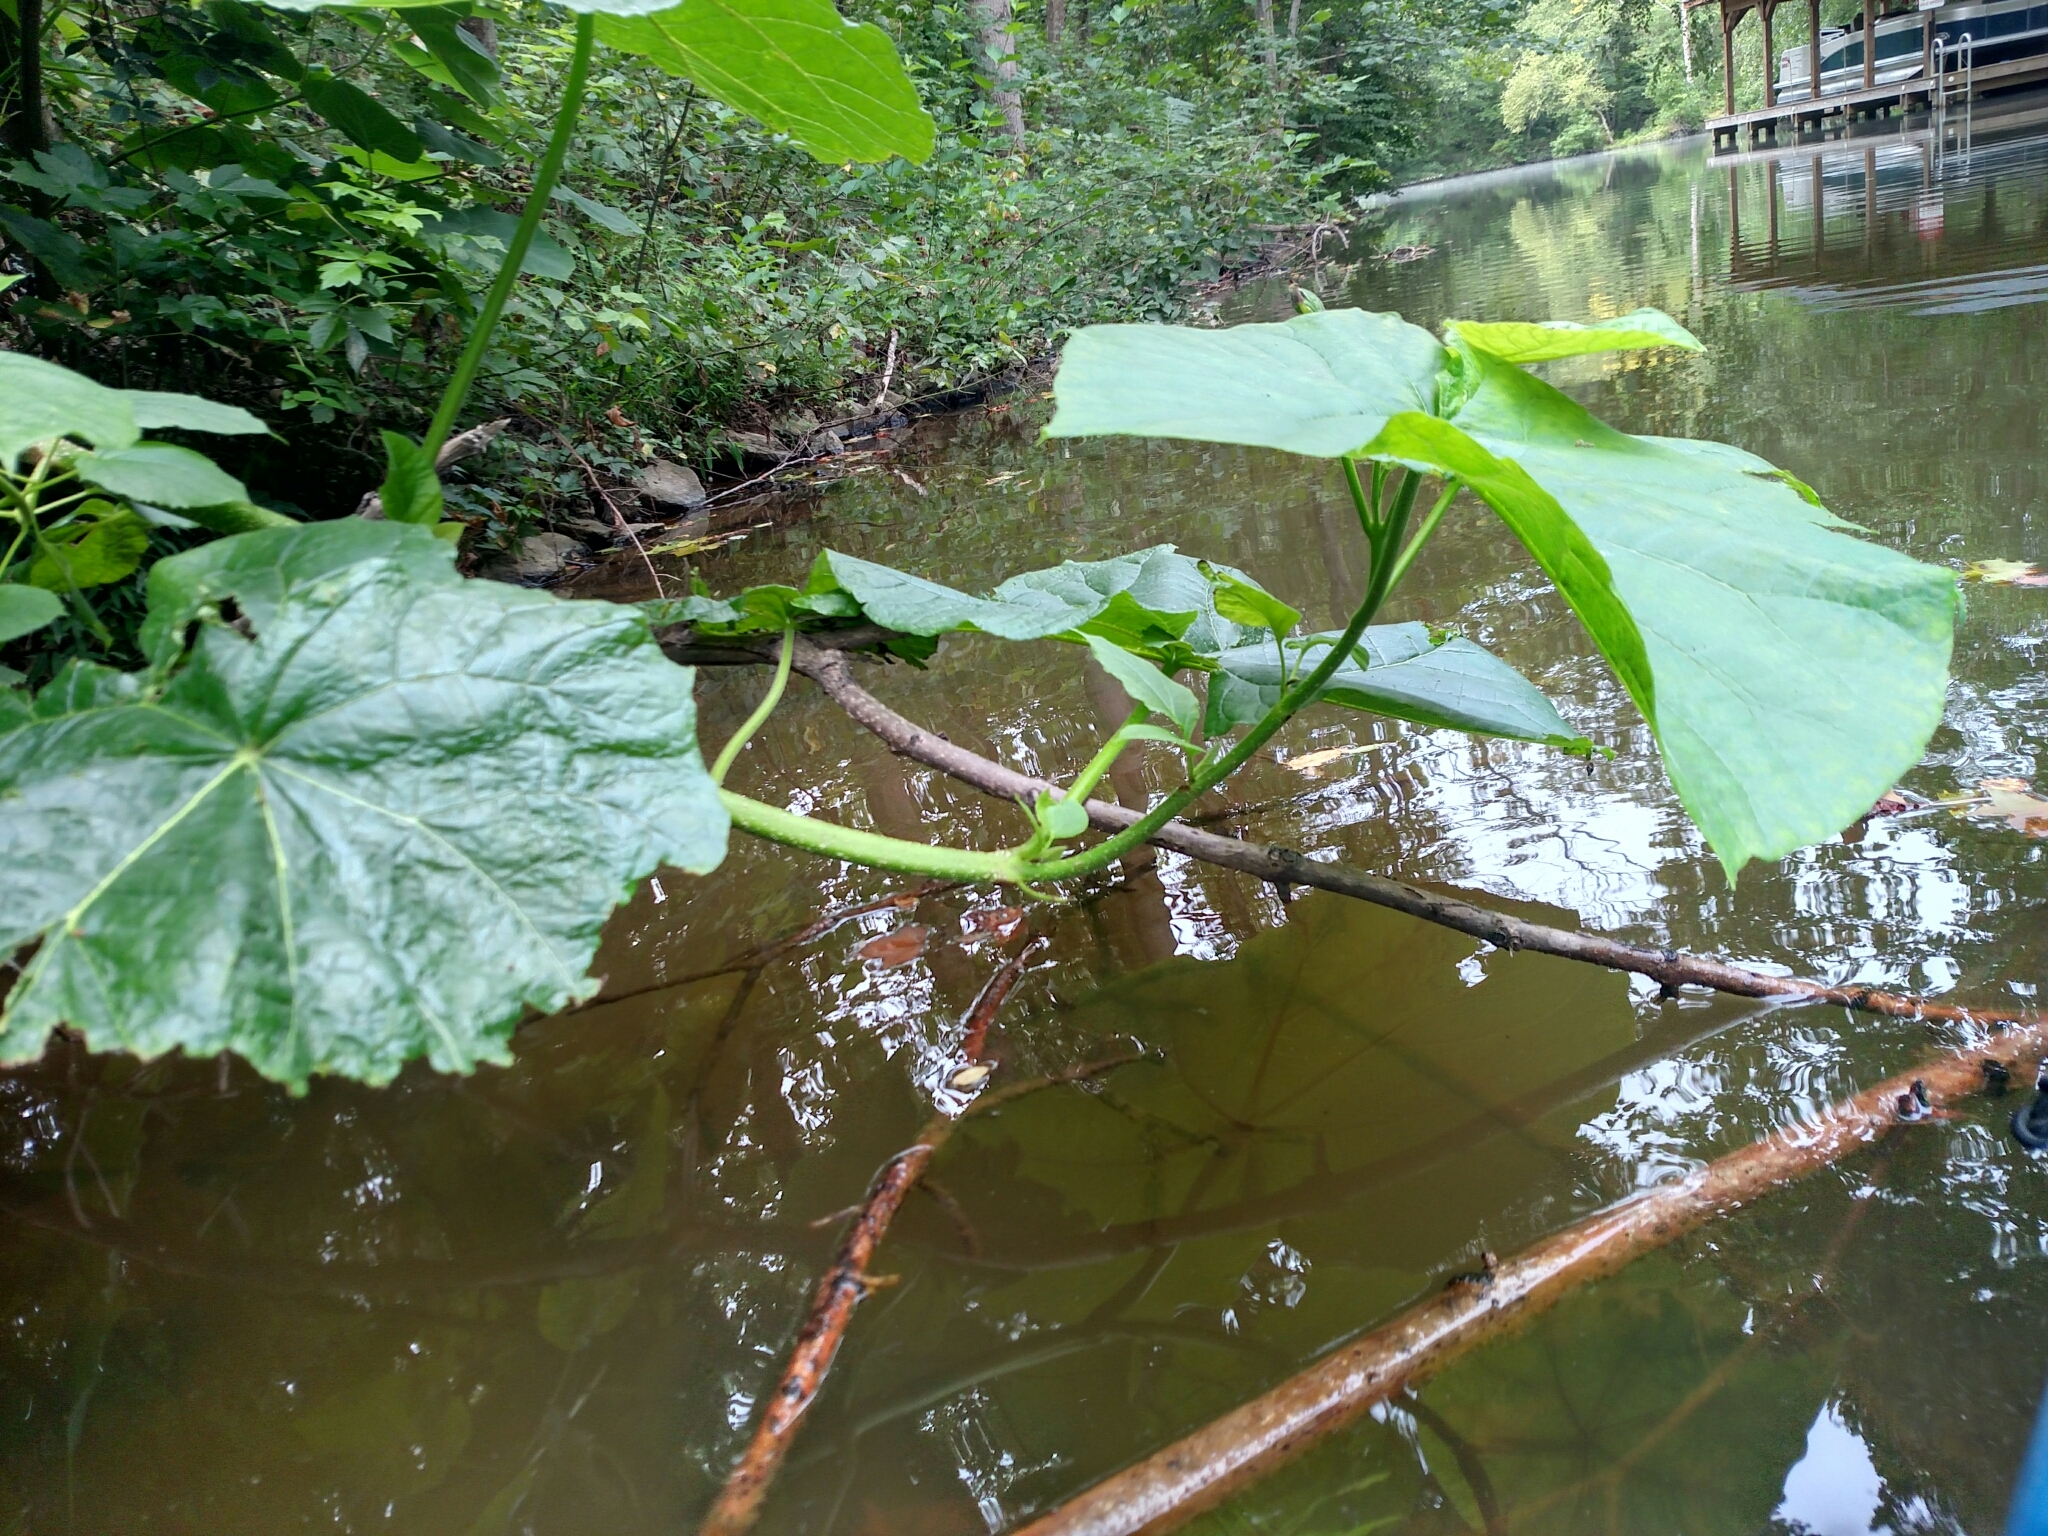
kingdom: Plantae
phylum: Tracheophyta
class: Magnoliopsida
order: Lamiales
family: Paulowniaceae
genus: Paulownia
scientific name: Paulownia tomentosa
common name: Foxglove-tree
